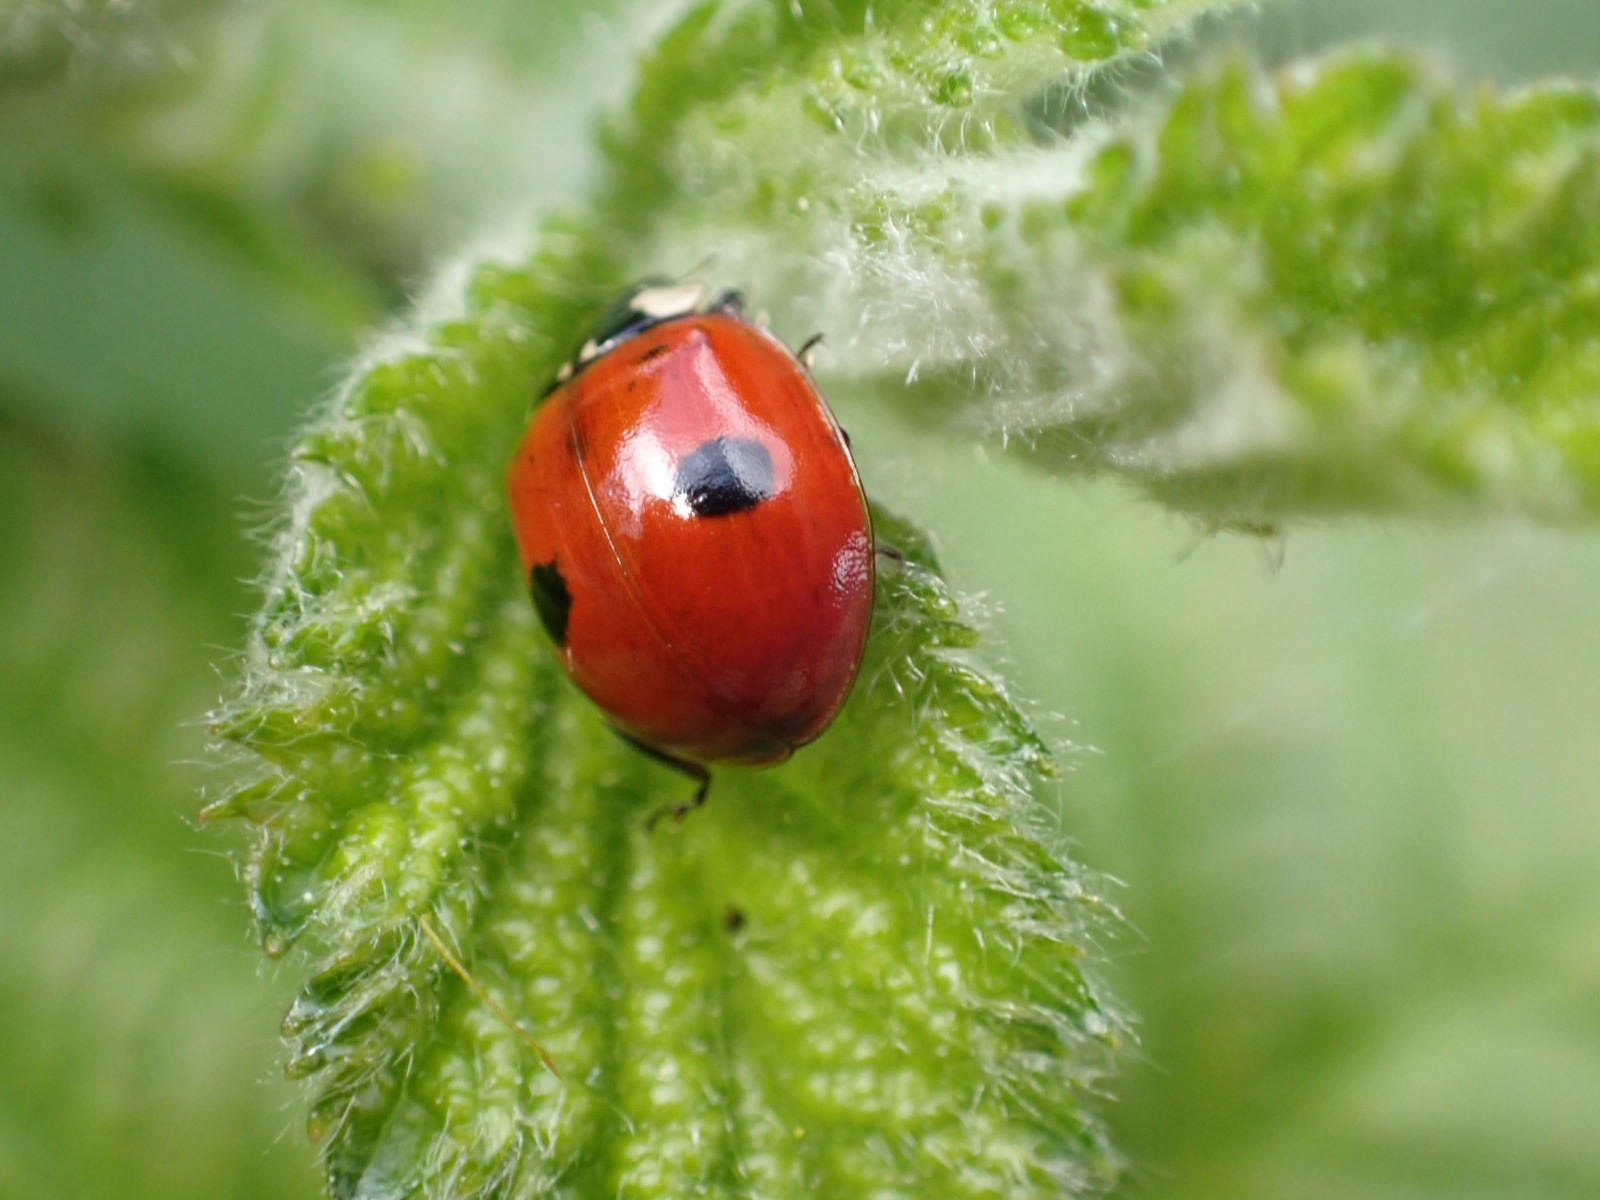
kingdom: Animalia
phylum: Arthropoda
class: Insecta
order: Coleoptera
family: Coccinellidae
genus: Adalia
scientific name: Adalia bipunctata
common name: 2-spot ladybird
